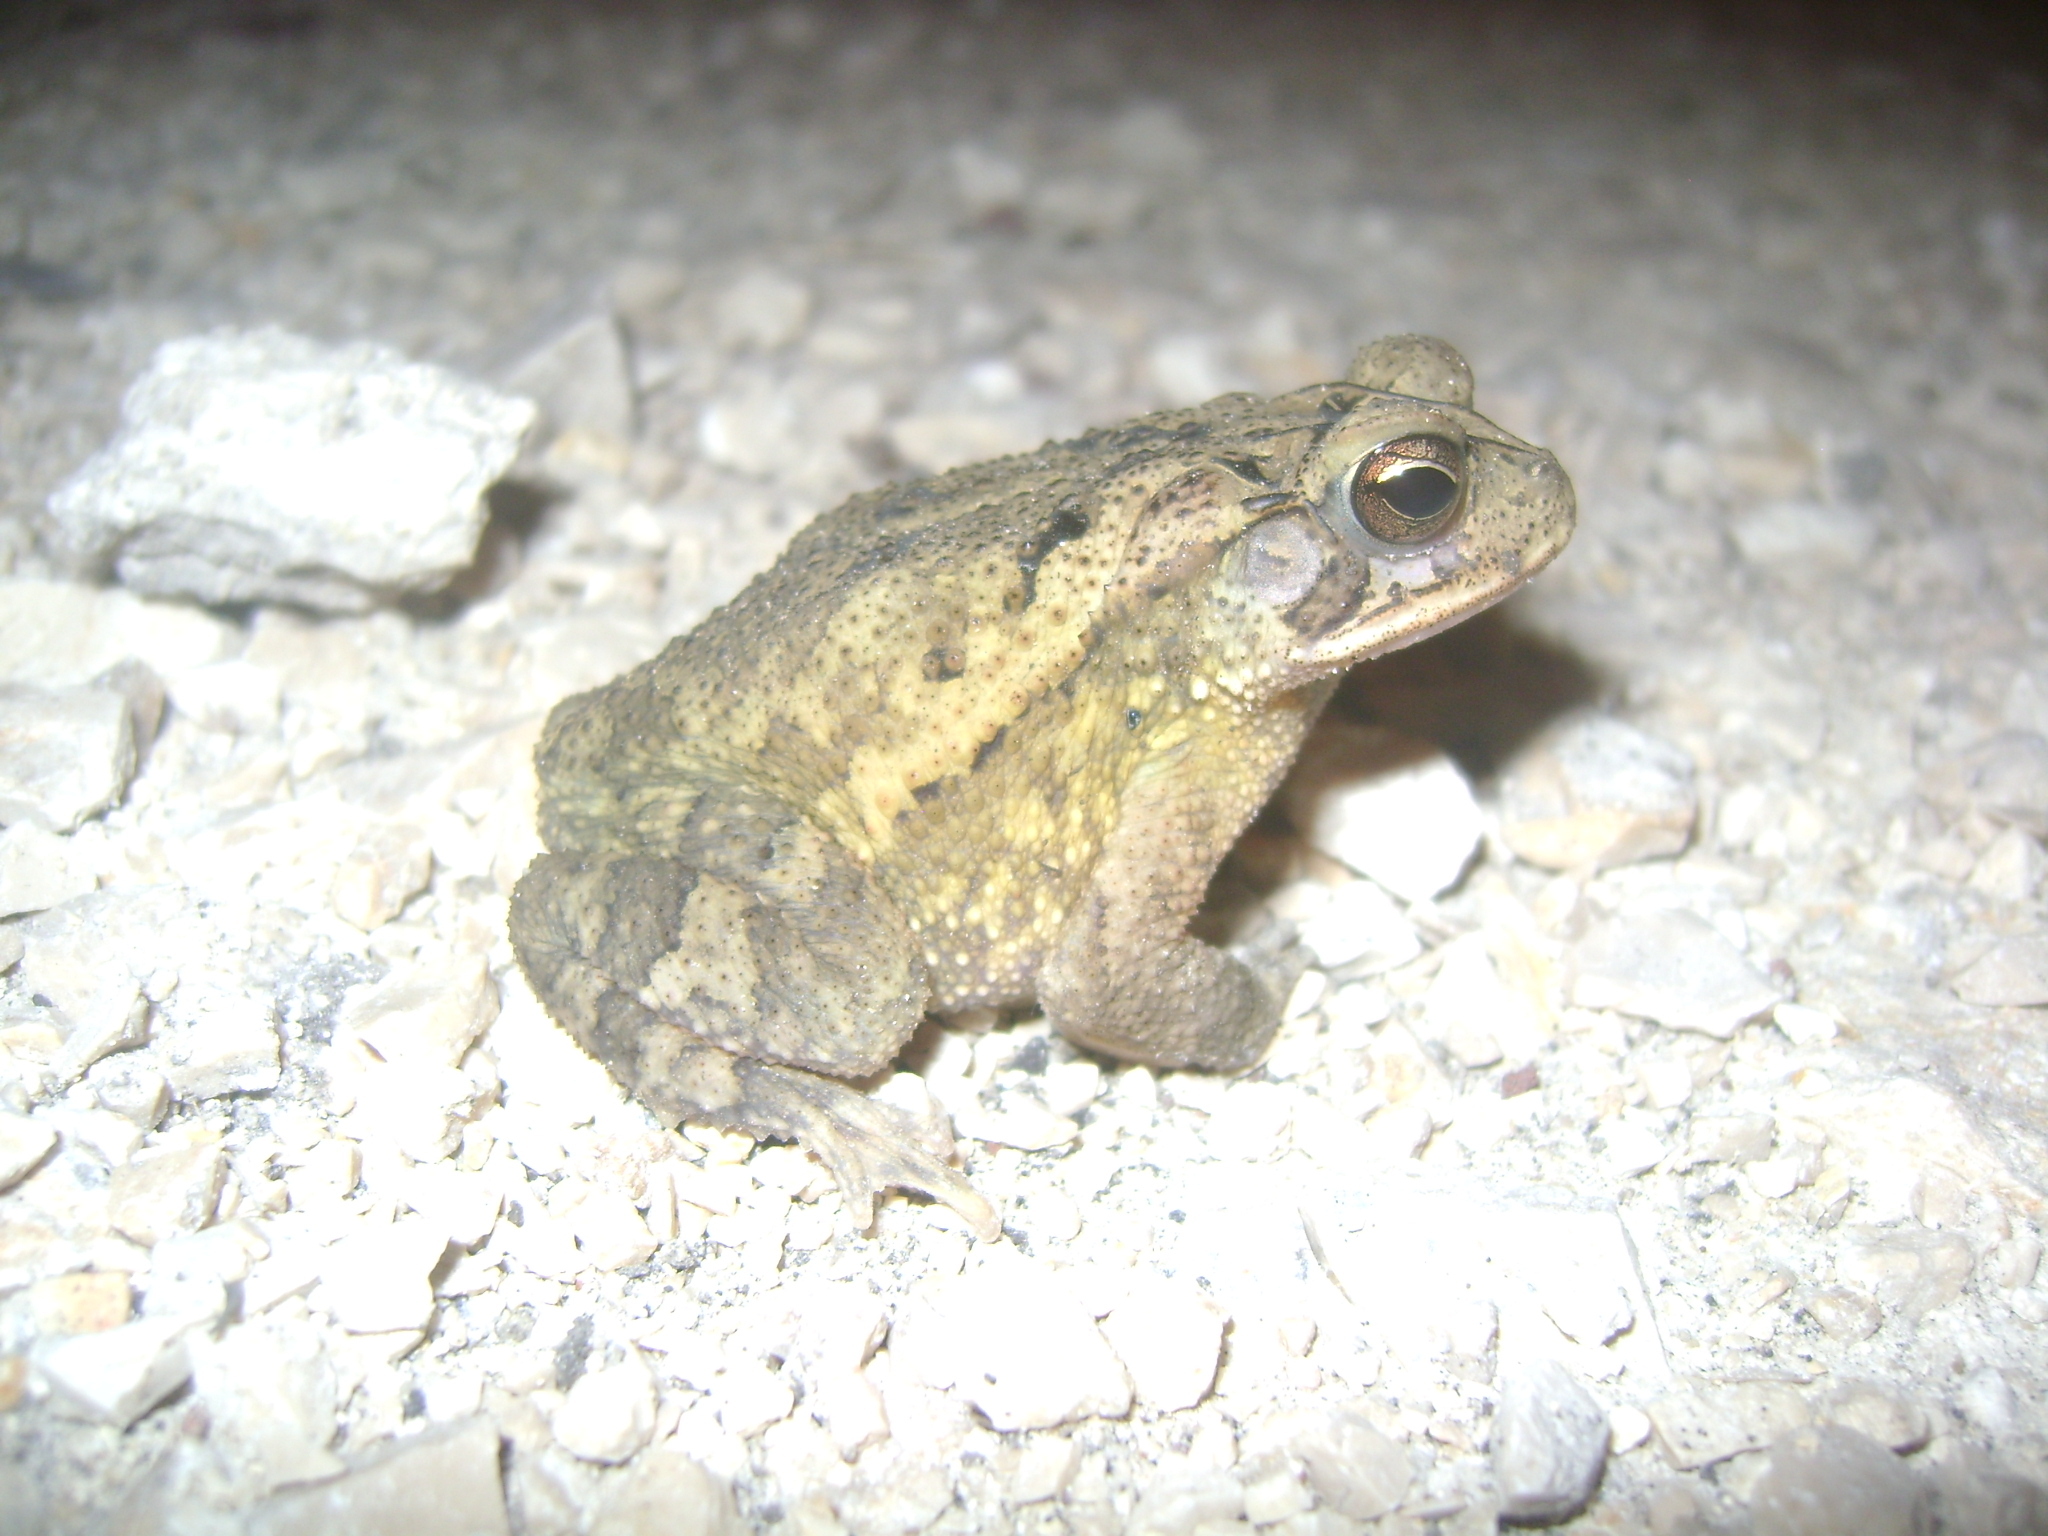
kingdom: Animalia
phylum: Chordata
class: Amphibia
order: Anura
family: Bufonidae
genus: Incilius
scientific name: Incilius valliceps
